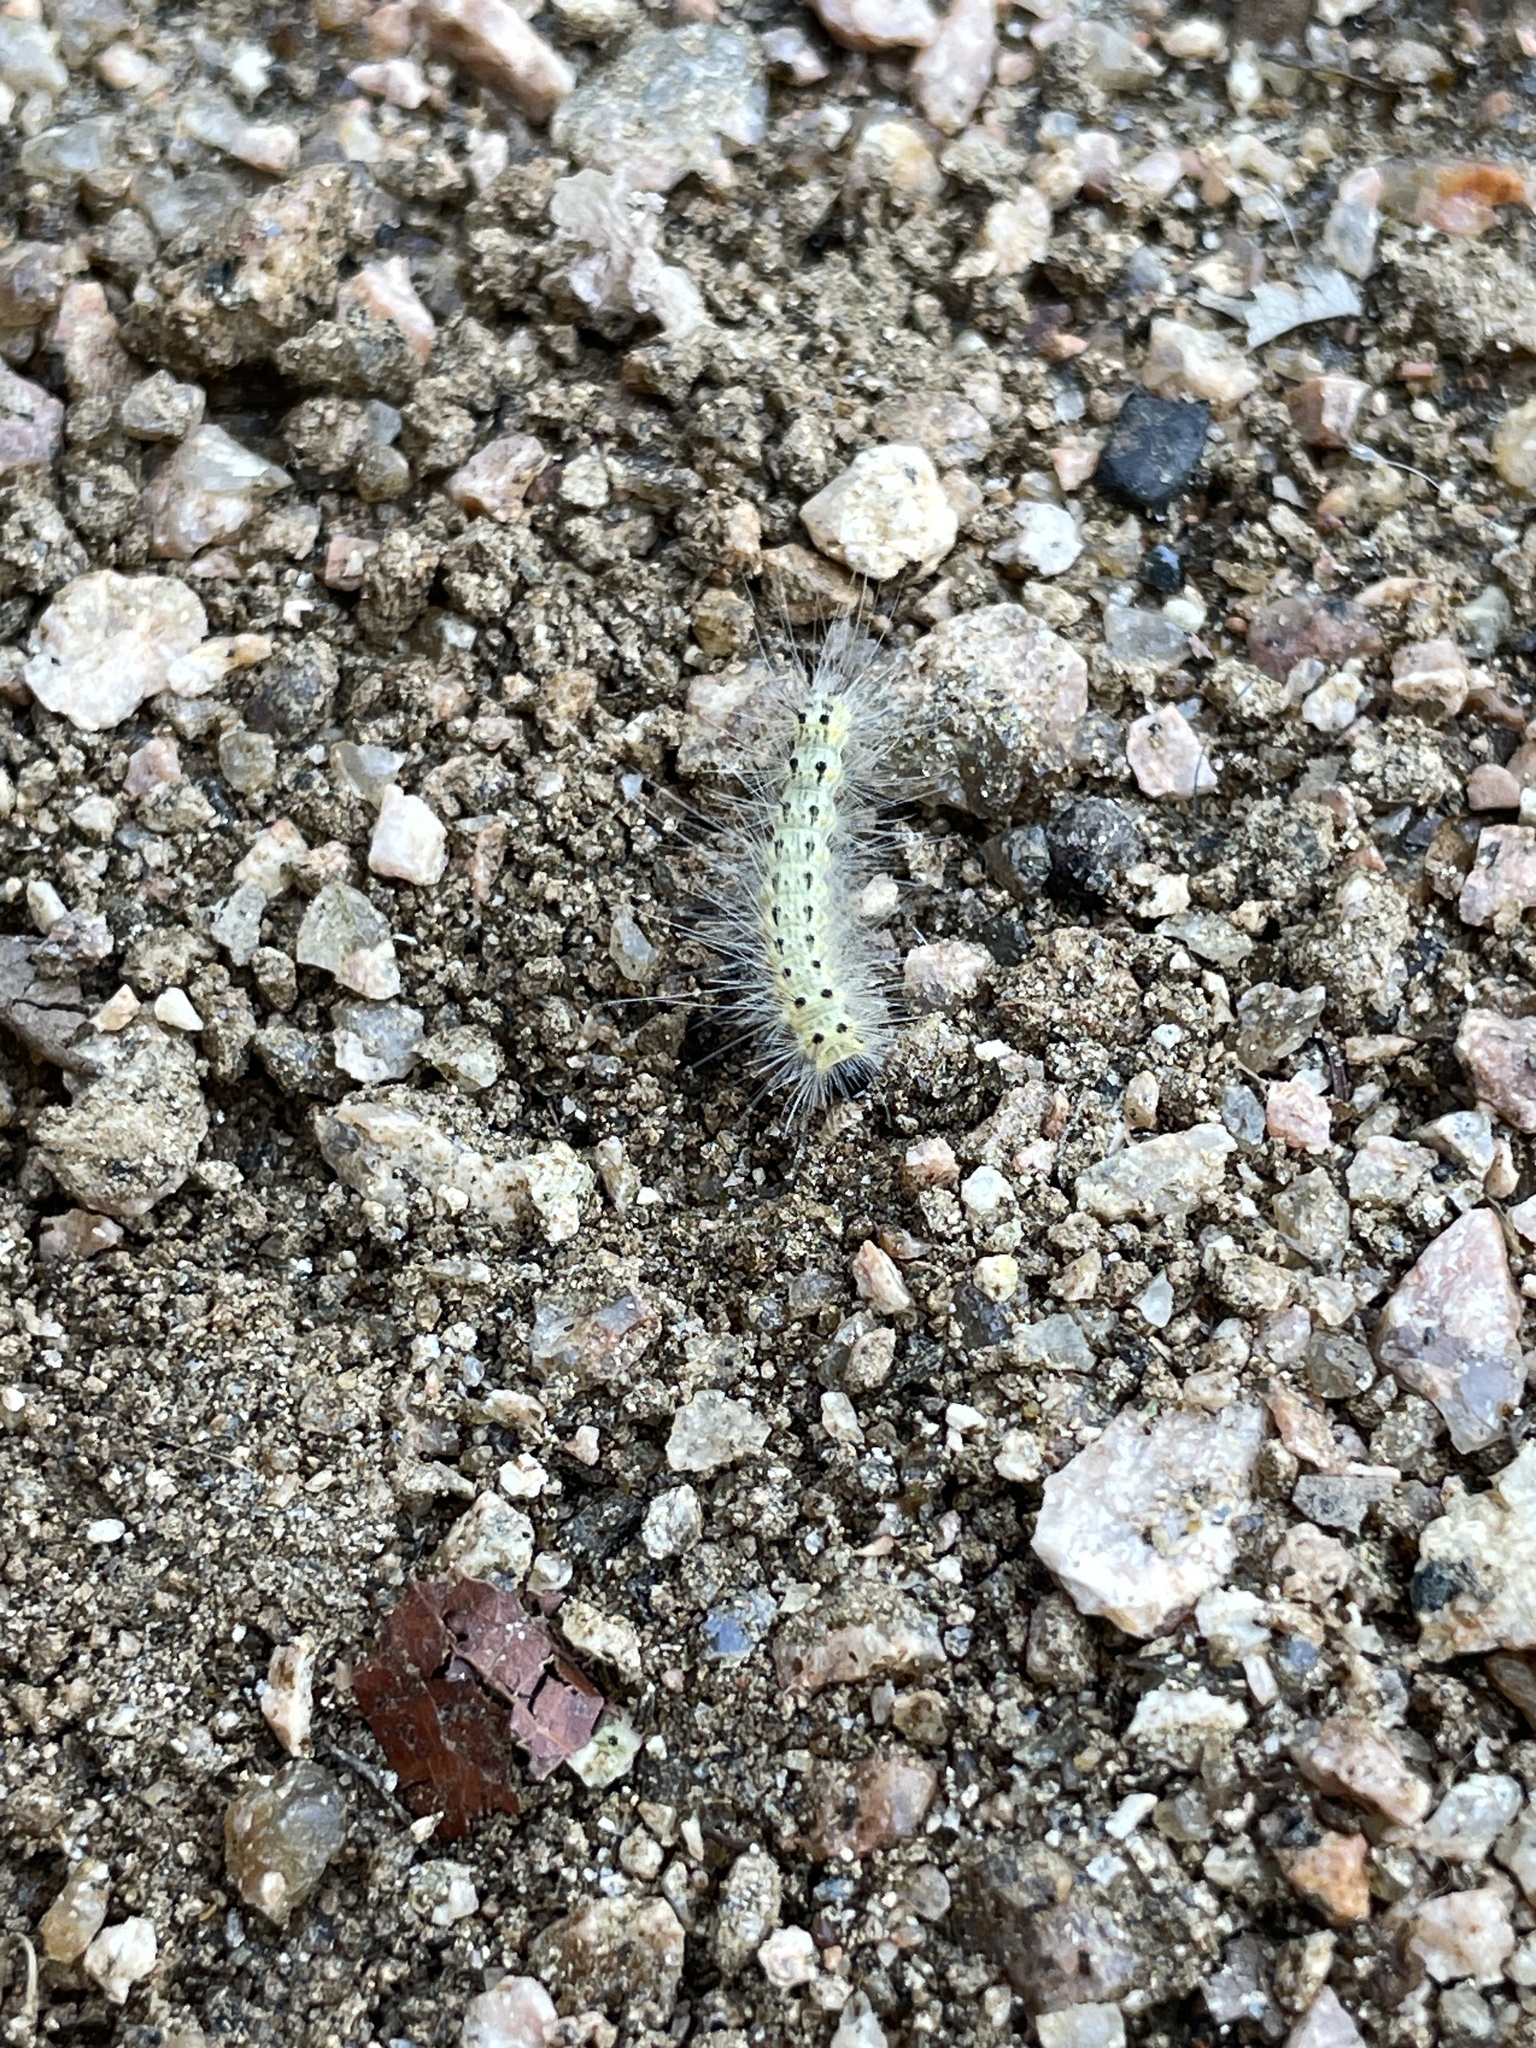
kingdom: Animalia
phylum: Arthropoda
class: Insecta
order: Lepidoptera
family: Erebidae
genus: Hyphantria
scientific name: Hyphantria cunea
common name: American white moth
